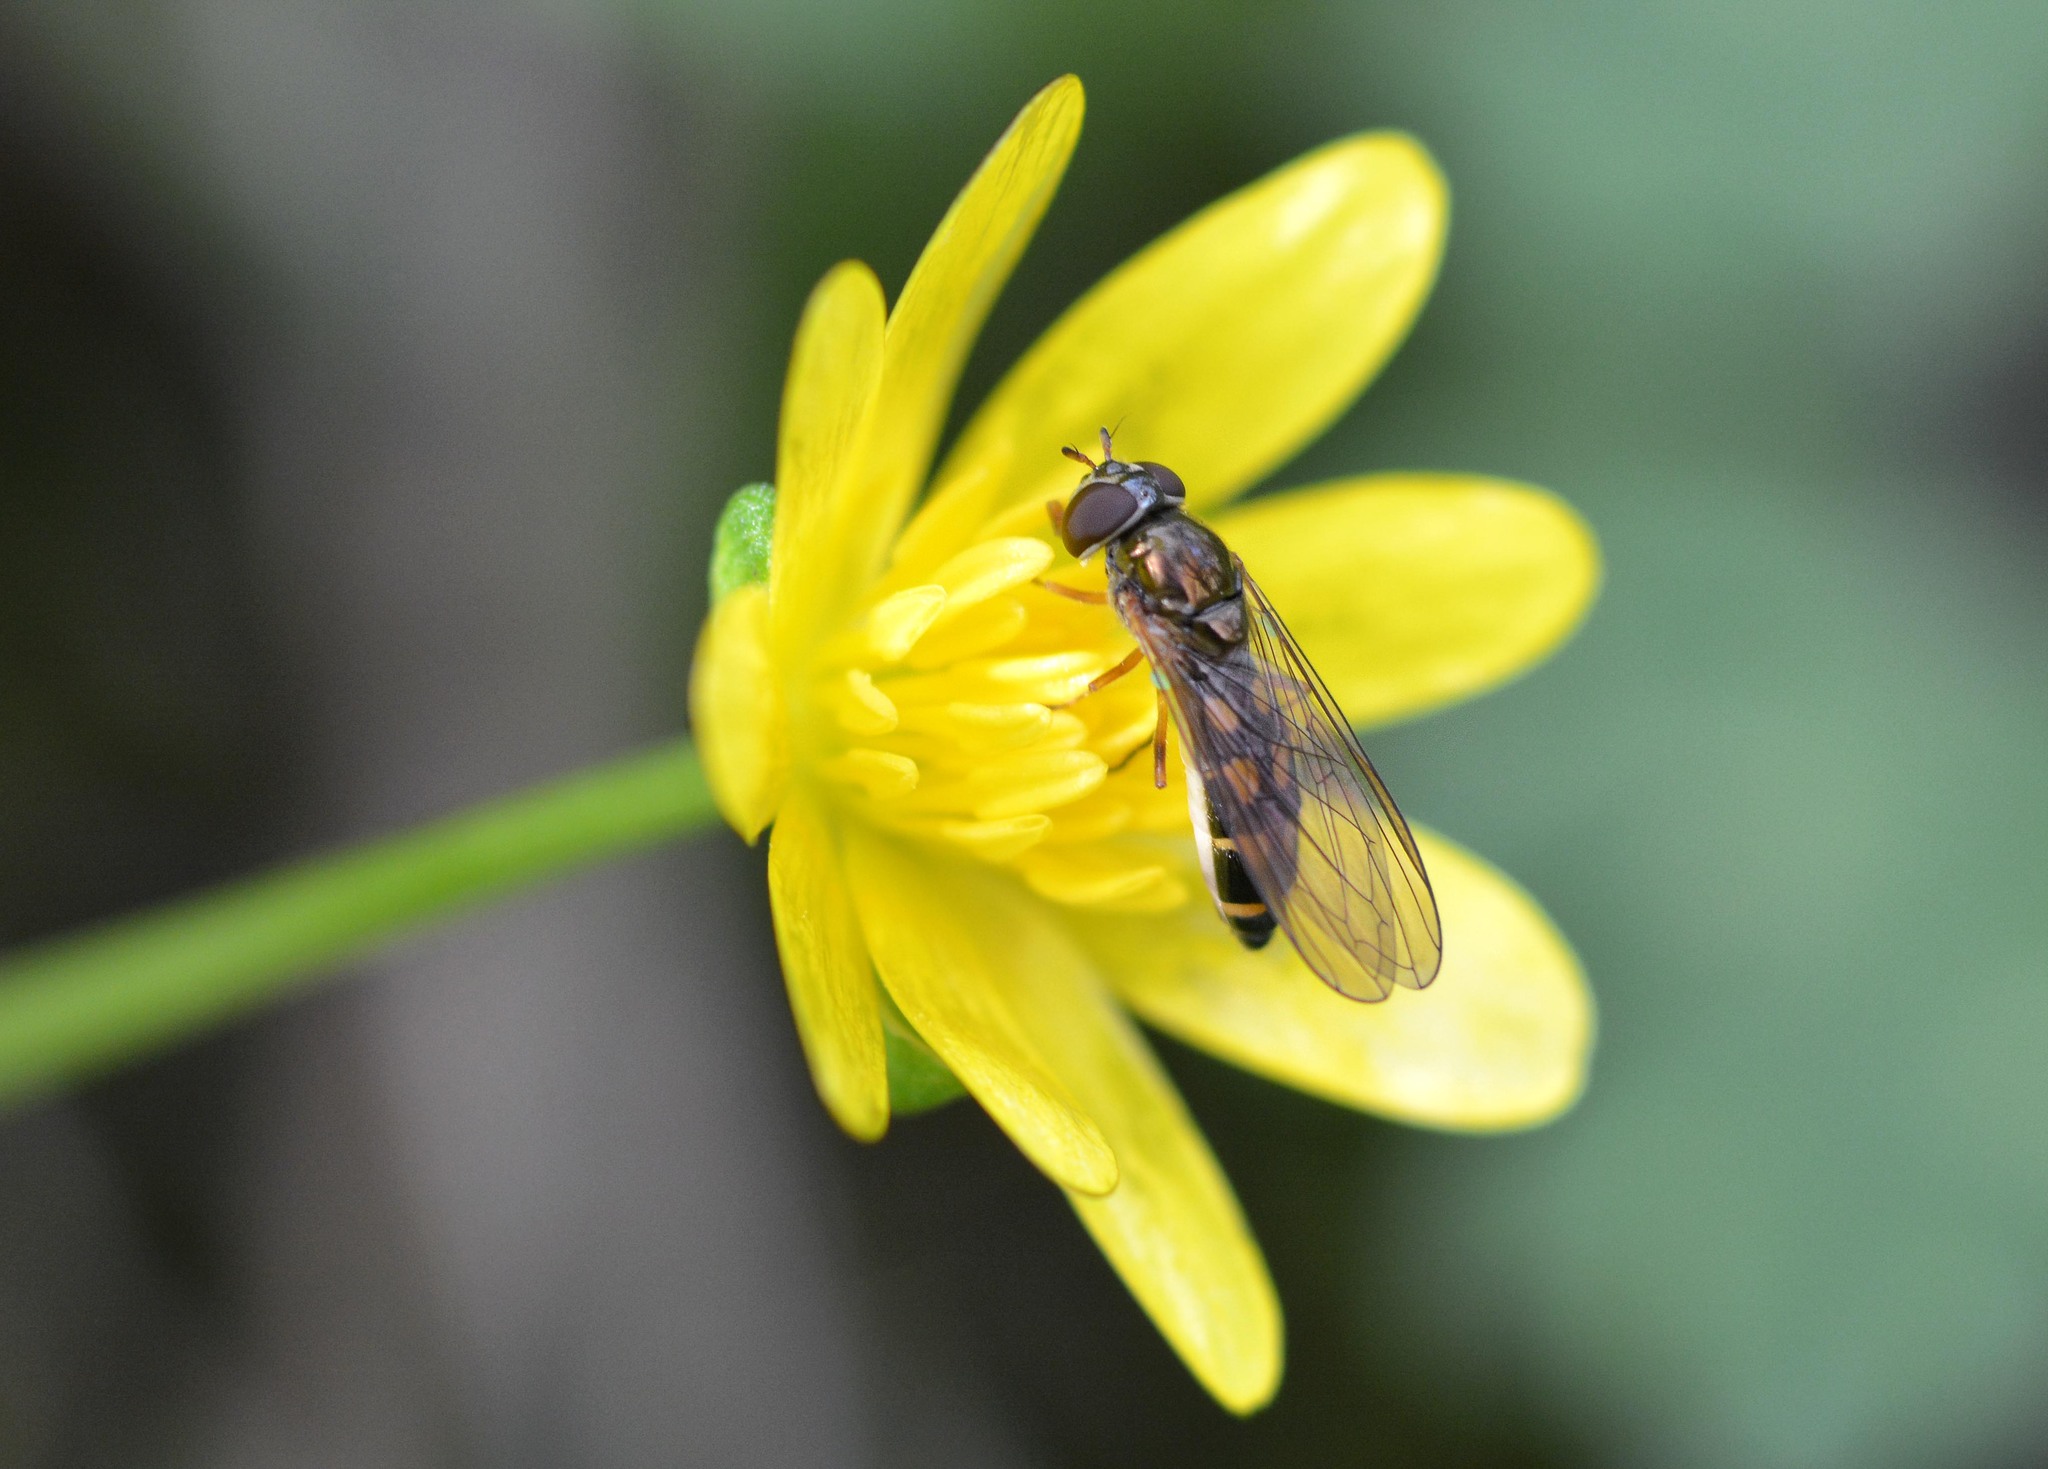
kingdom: Animalia
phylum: Arthropoda
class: Insecta
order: Diptera
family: Syrphidae
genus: Melanostoma
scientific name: Melanostoma scalare
